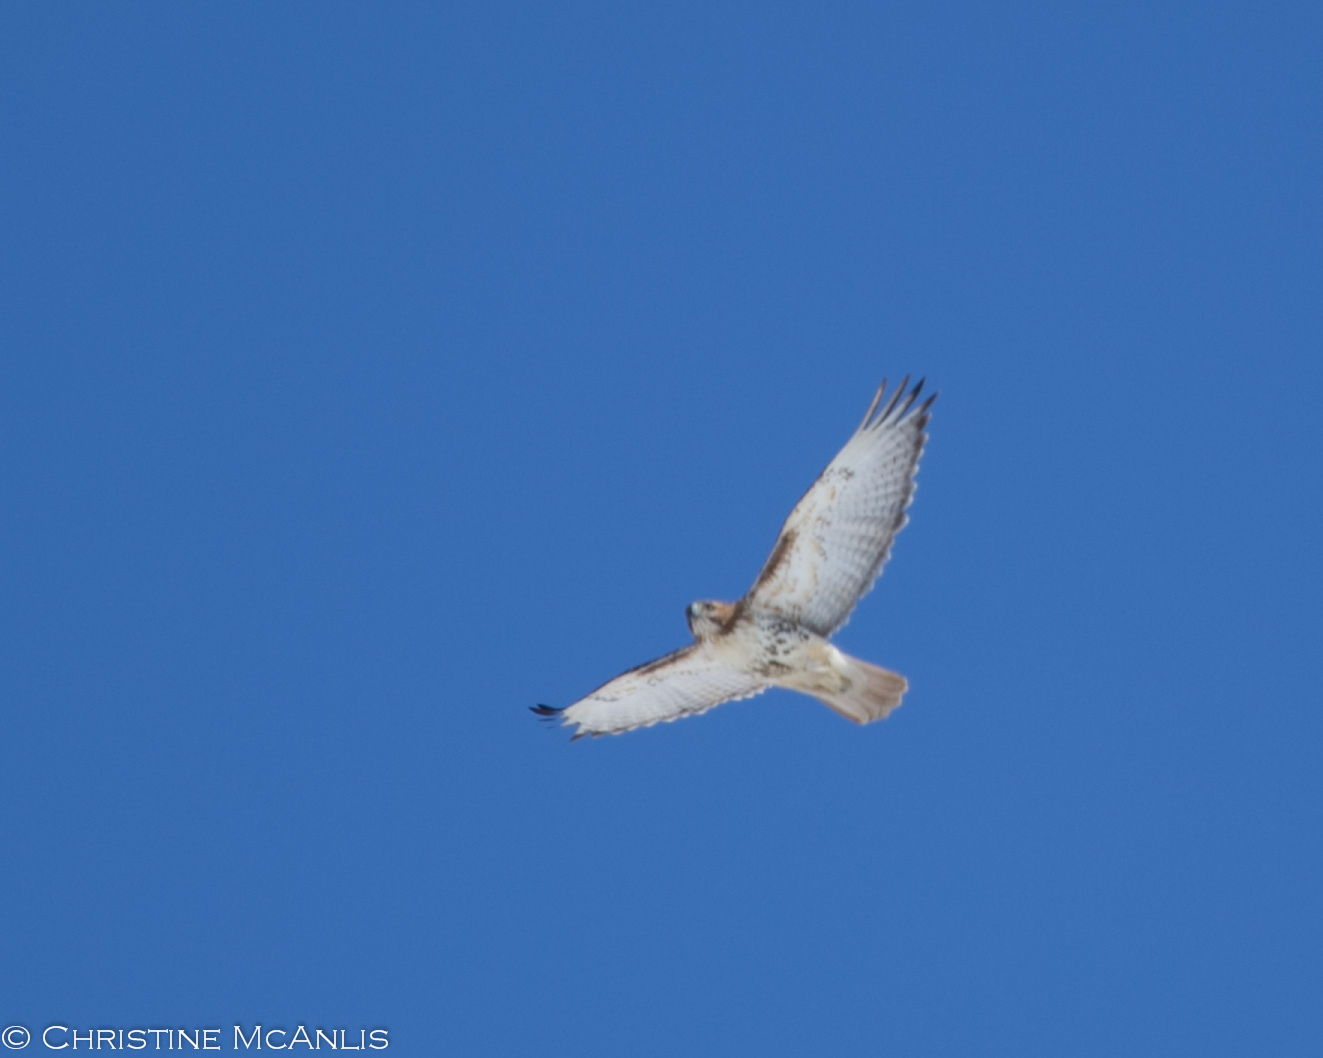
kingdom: Animalia
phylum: Chordata
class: Aves
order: Accipitriformes
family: Accipitridae
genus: Buteo
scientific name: Buteo jamaicensis
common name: Red-tailed hawk
